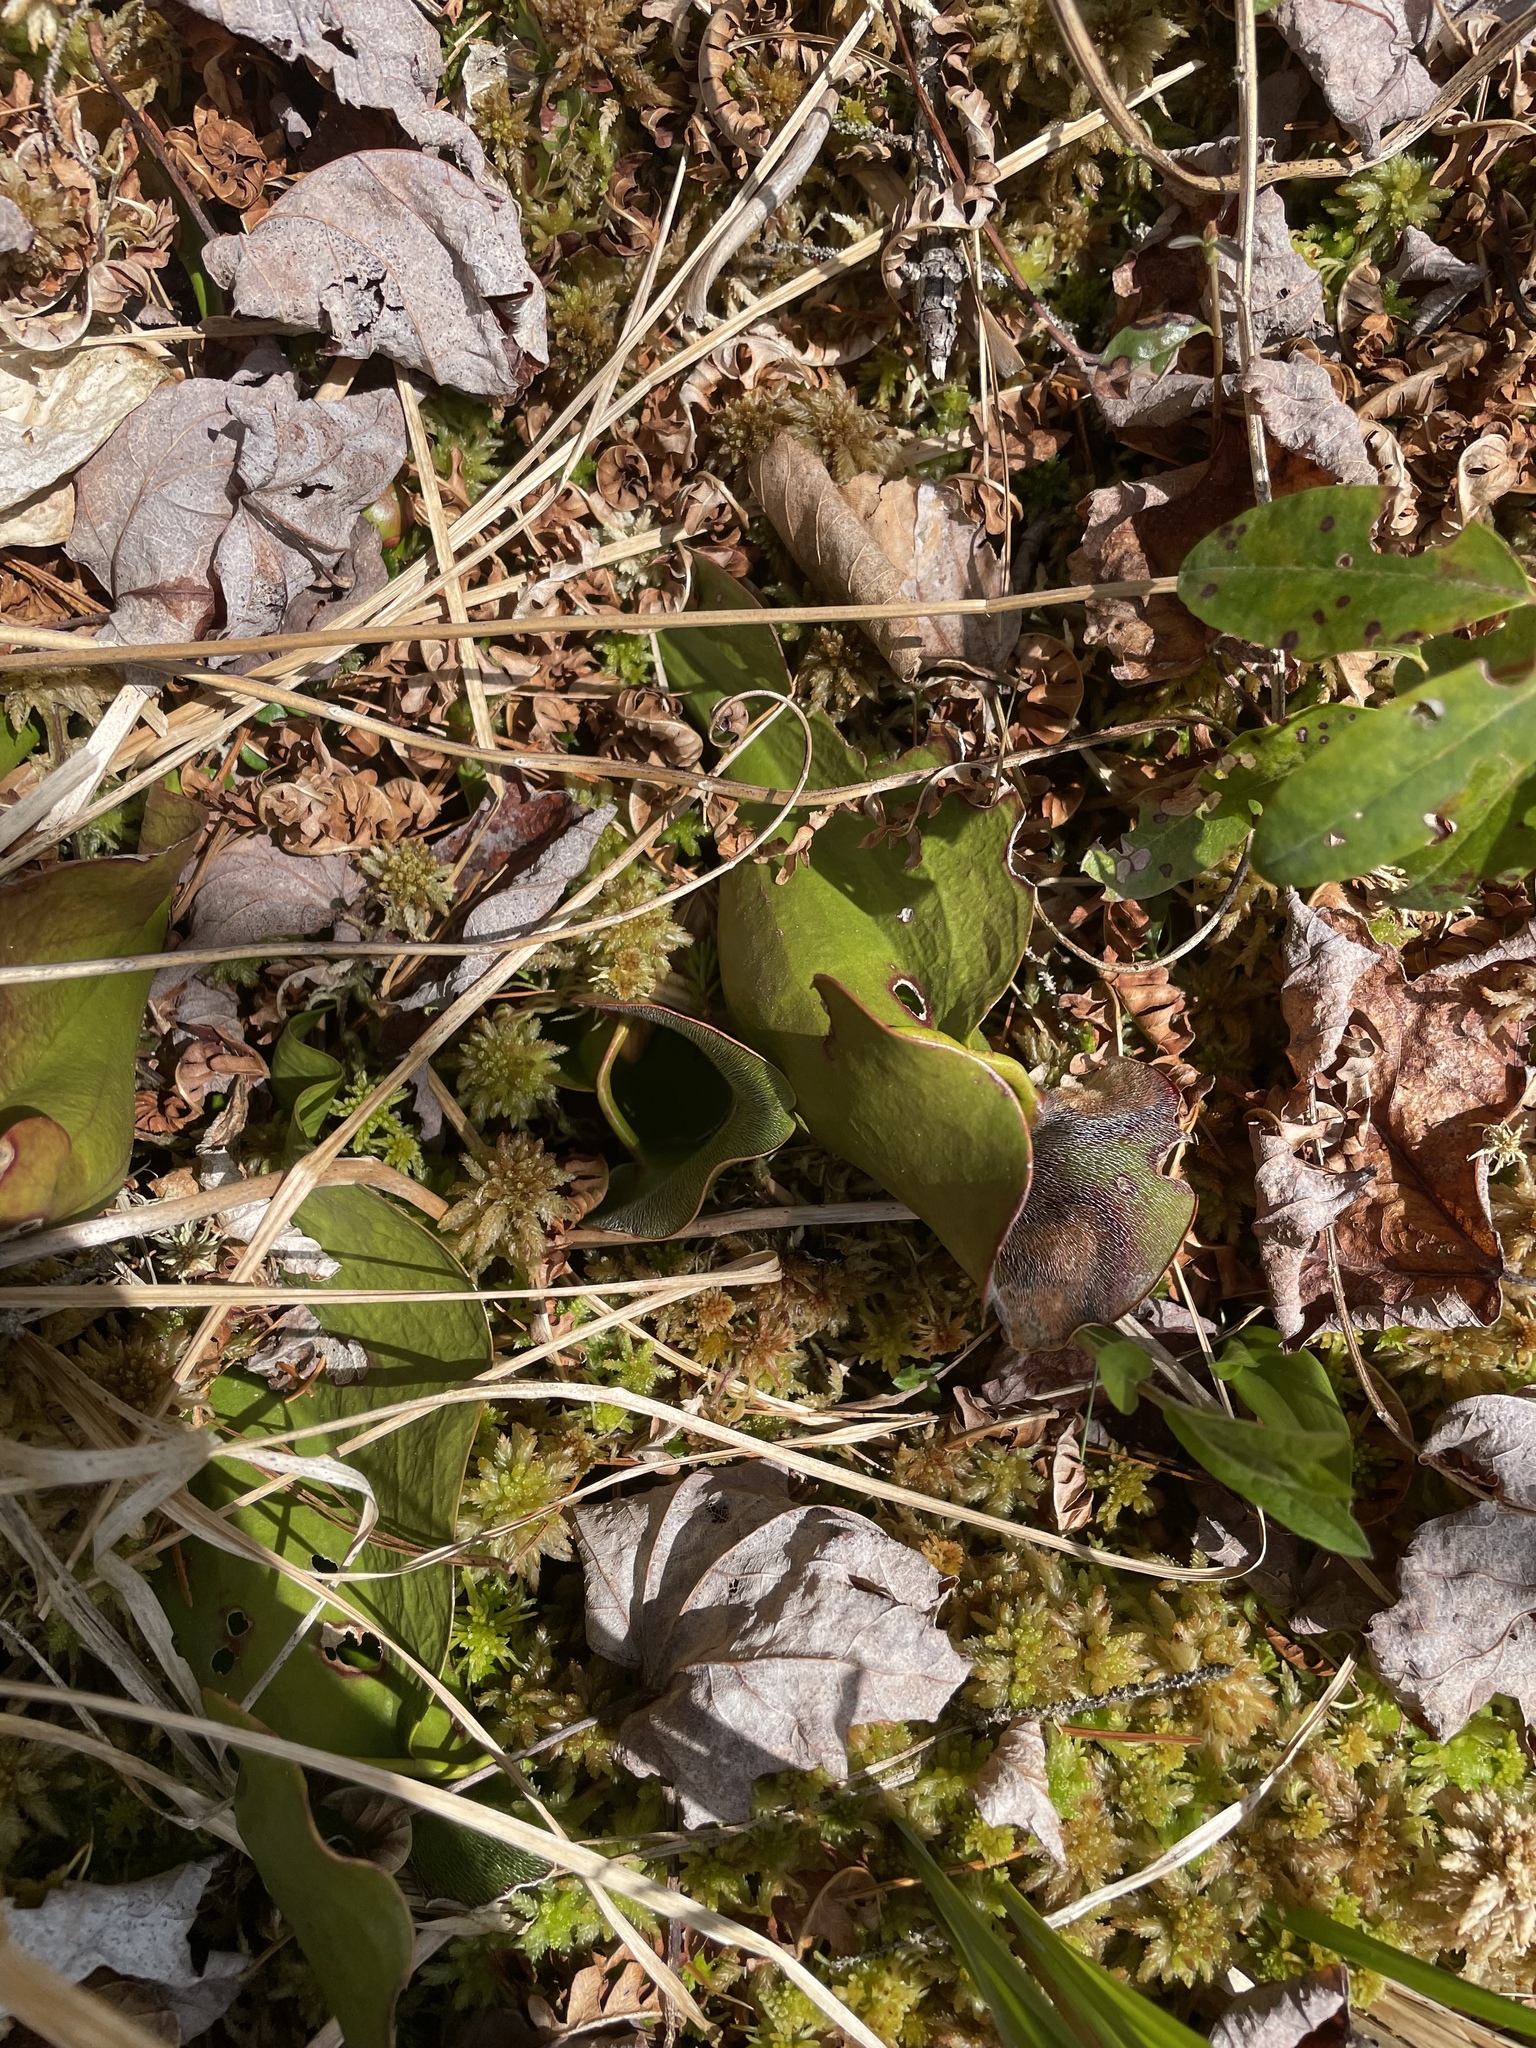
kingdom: Plantae
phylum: Tracheophyta
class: Magnoliopsida
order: Ericales
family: Sarraceniaceae
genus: Sarracenia
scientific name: Sarracenia purpurea
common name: Pitcherplant
